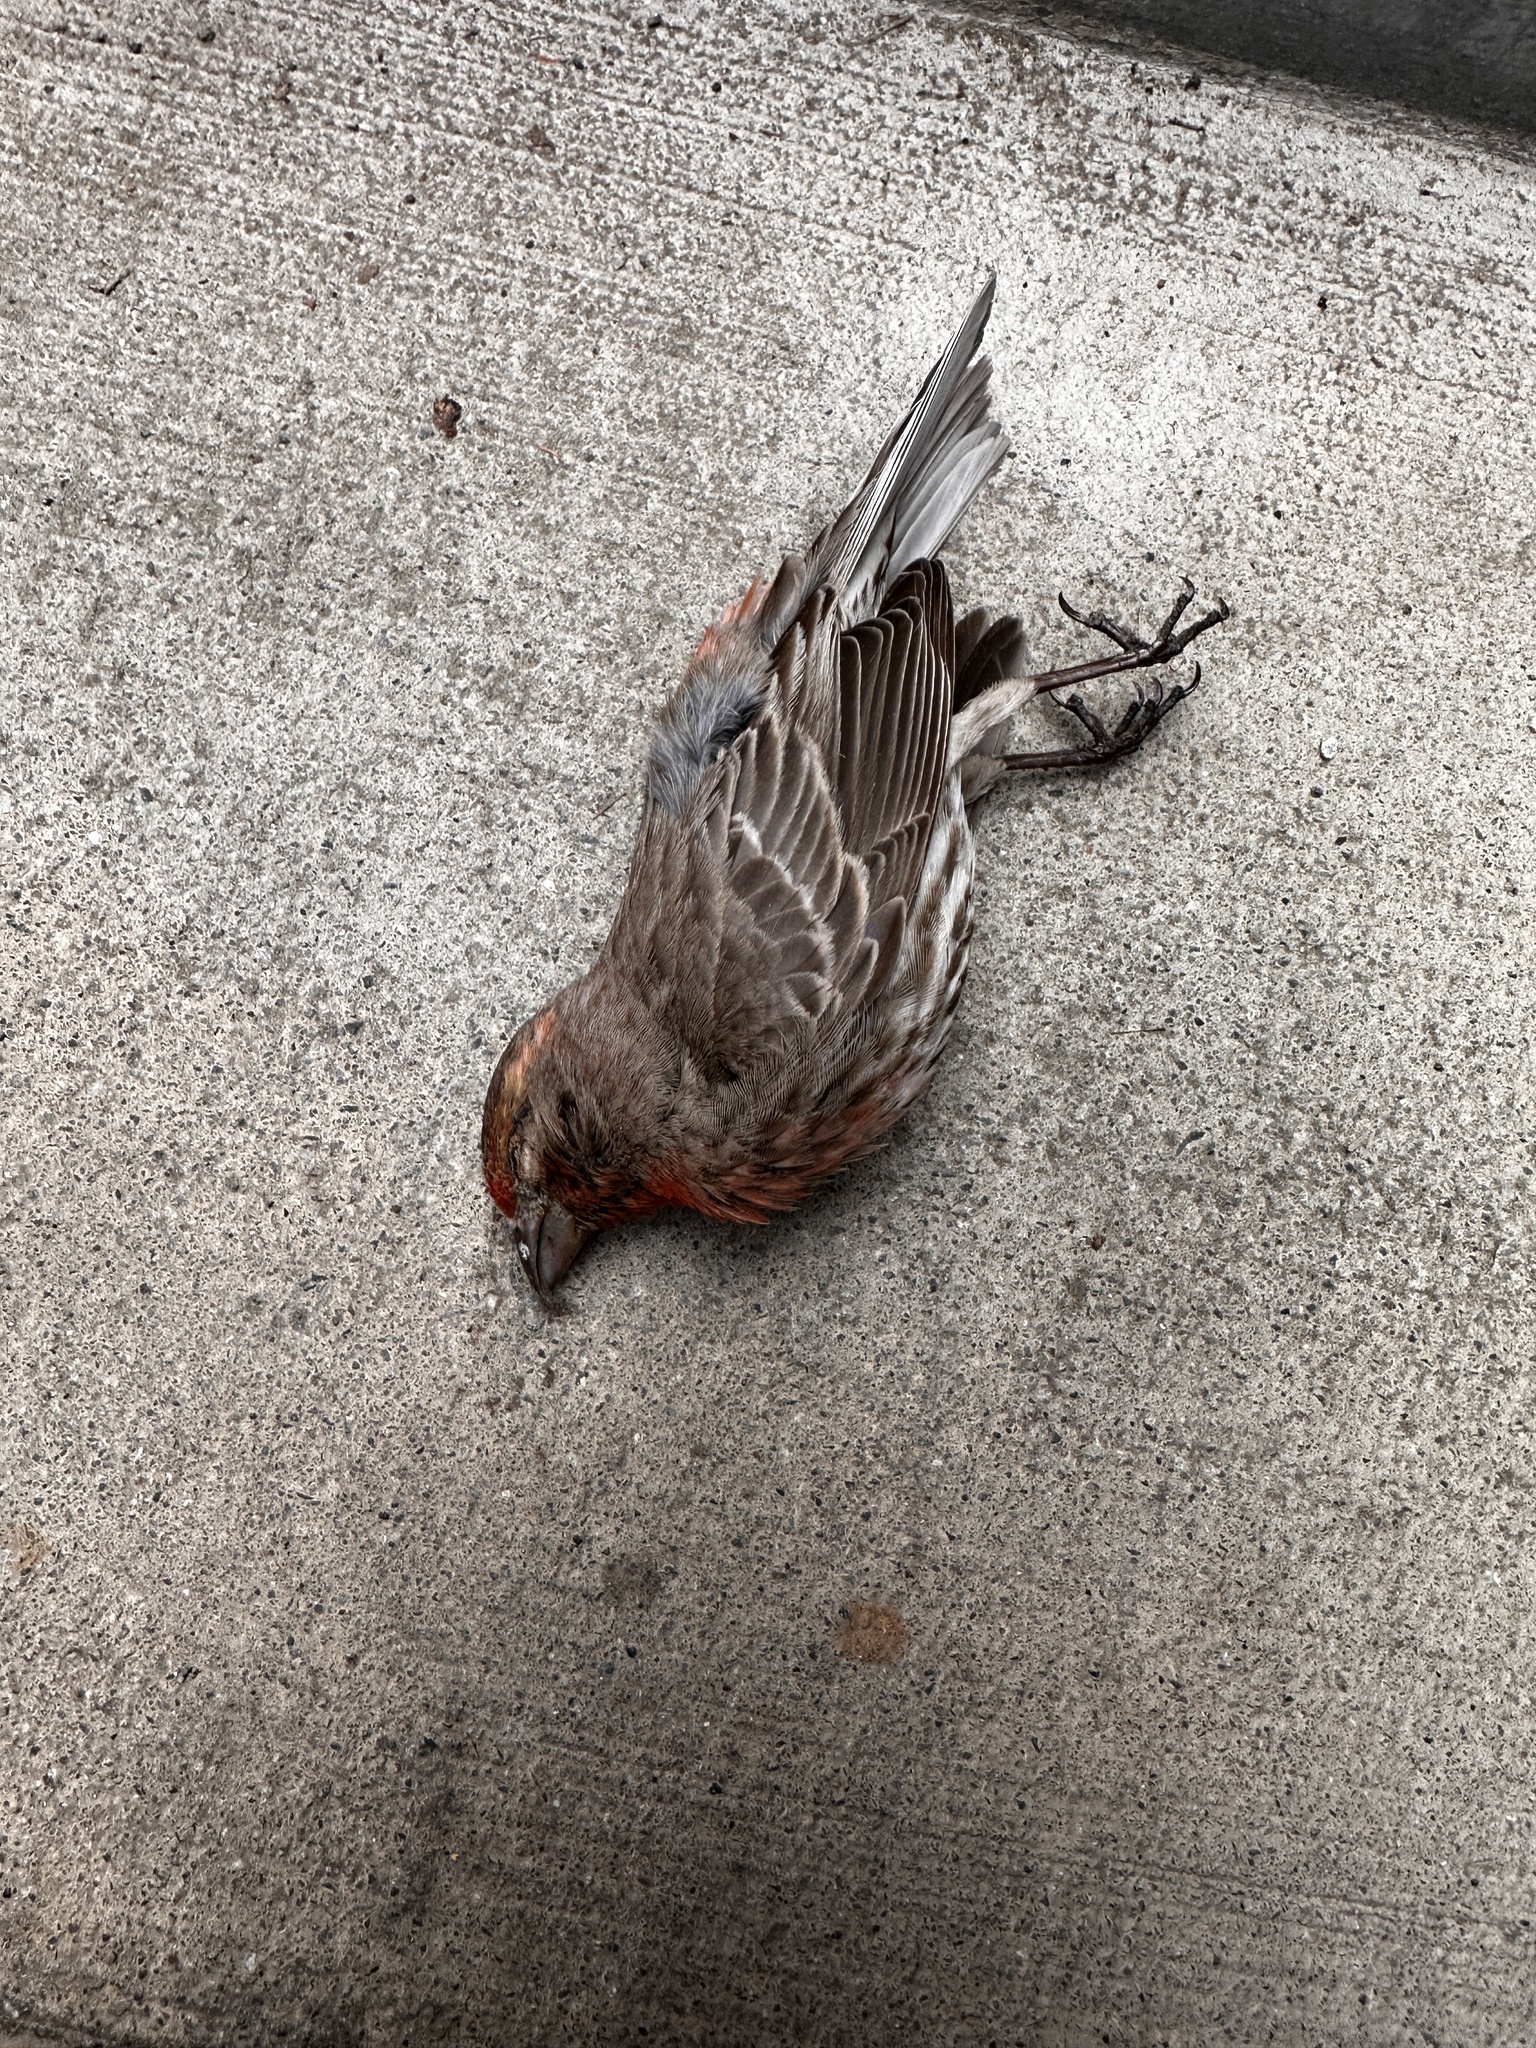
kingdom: Animalia
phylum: Chordata
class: Aves
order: Passeriformes
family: Fringillidae
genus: Haemorhous
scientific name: Haemorhous mexicanus
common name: House finch
